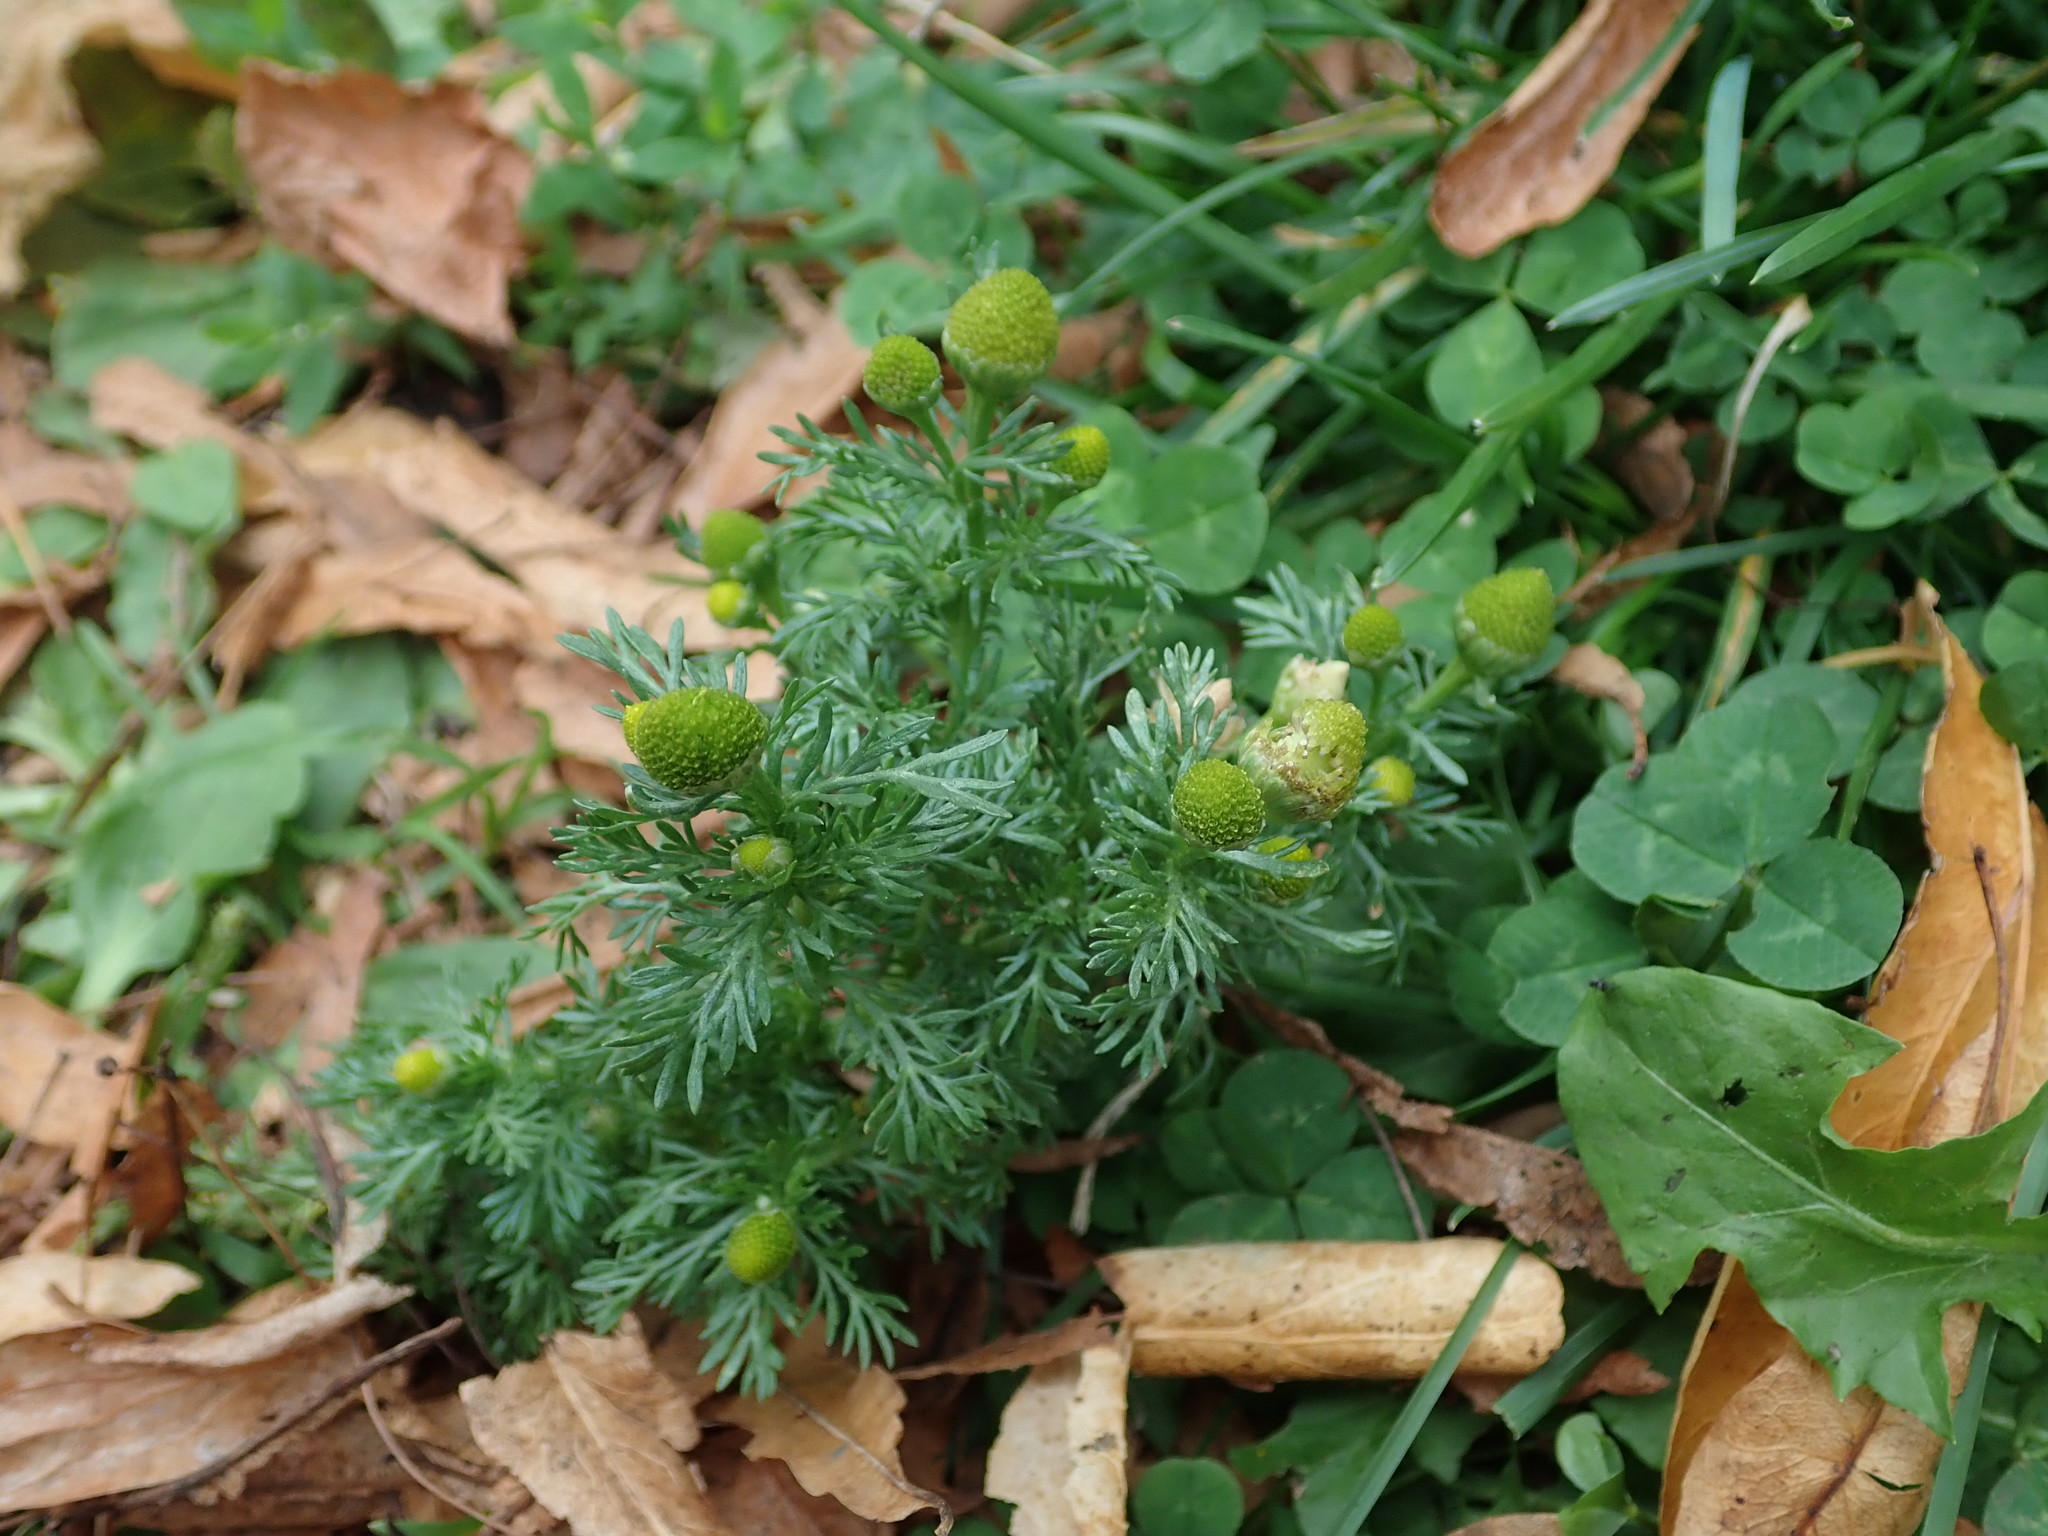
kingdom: Plantae
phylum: Tracheophyta
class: Magnoliopsida
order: Asterales
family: Asteraceae
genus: Matricaria
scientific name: Matricaria discoidea
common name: Disc mayweed
